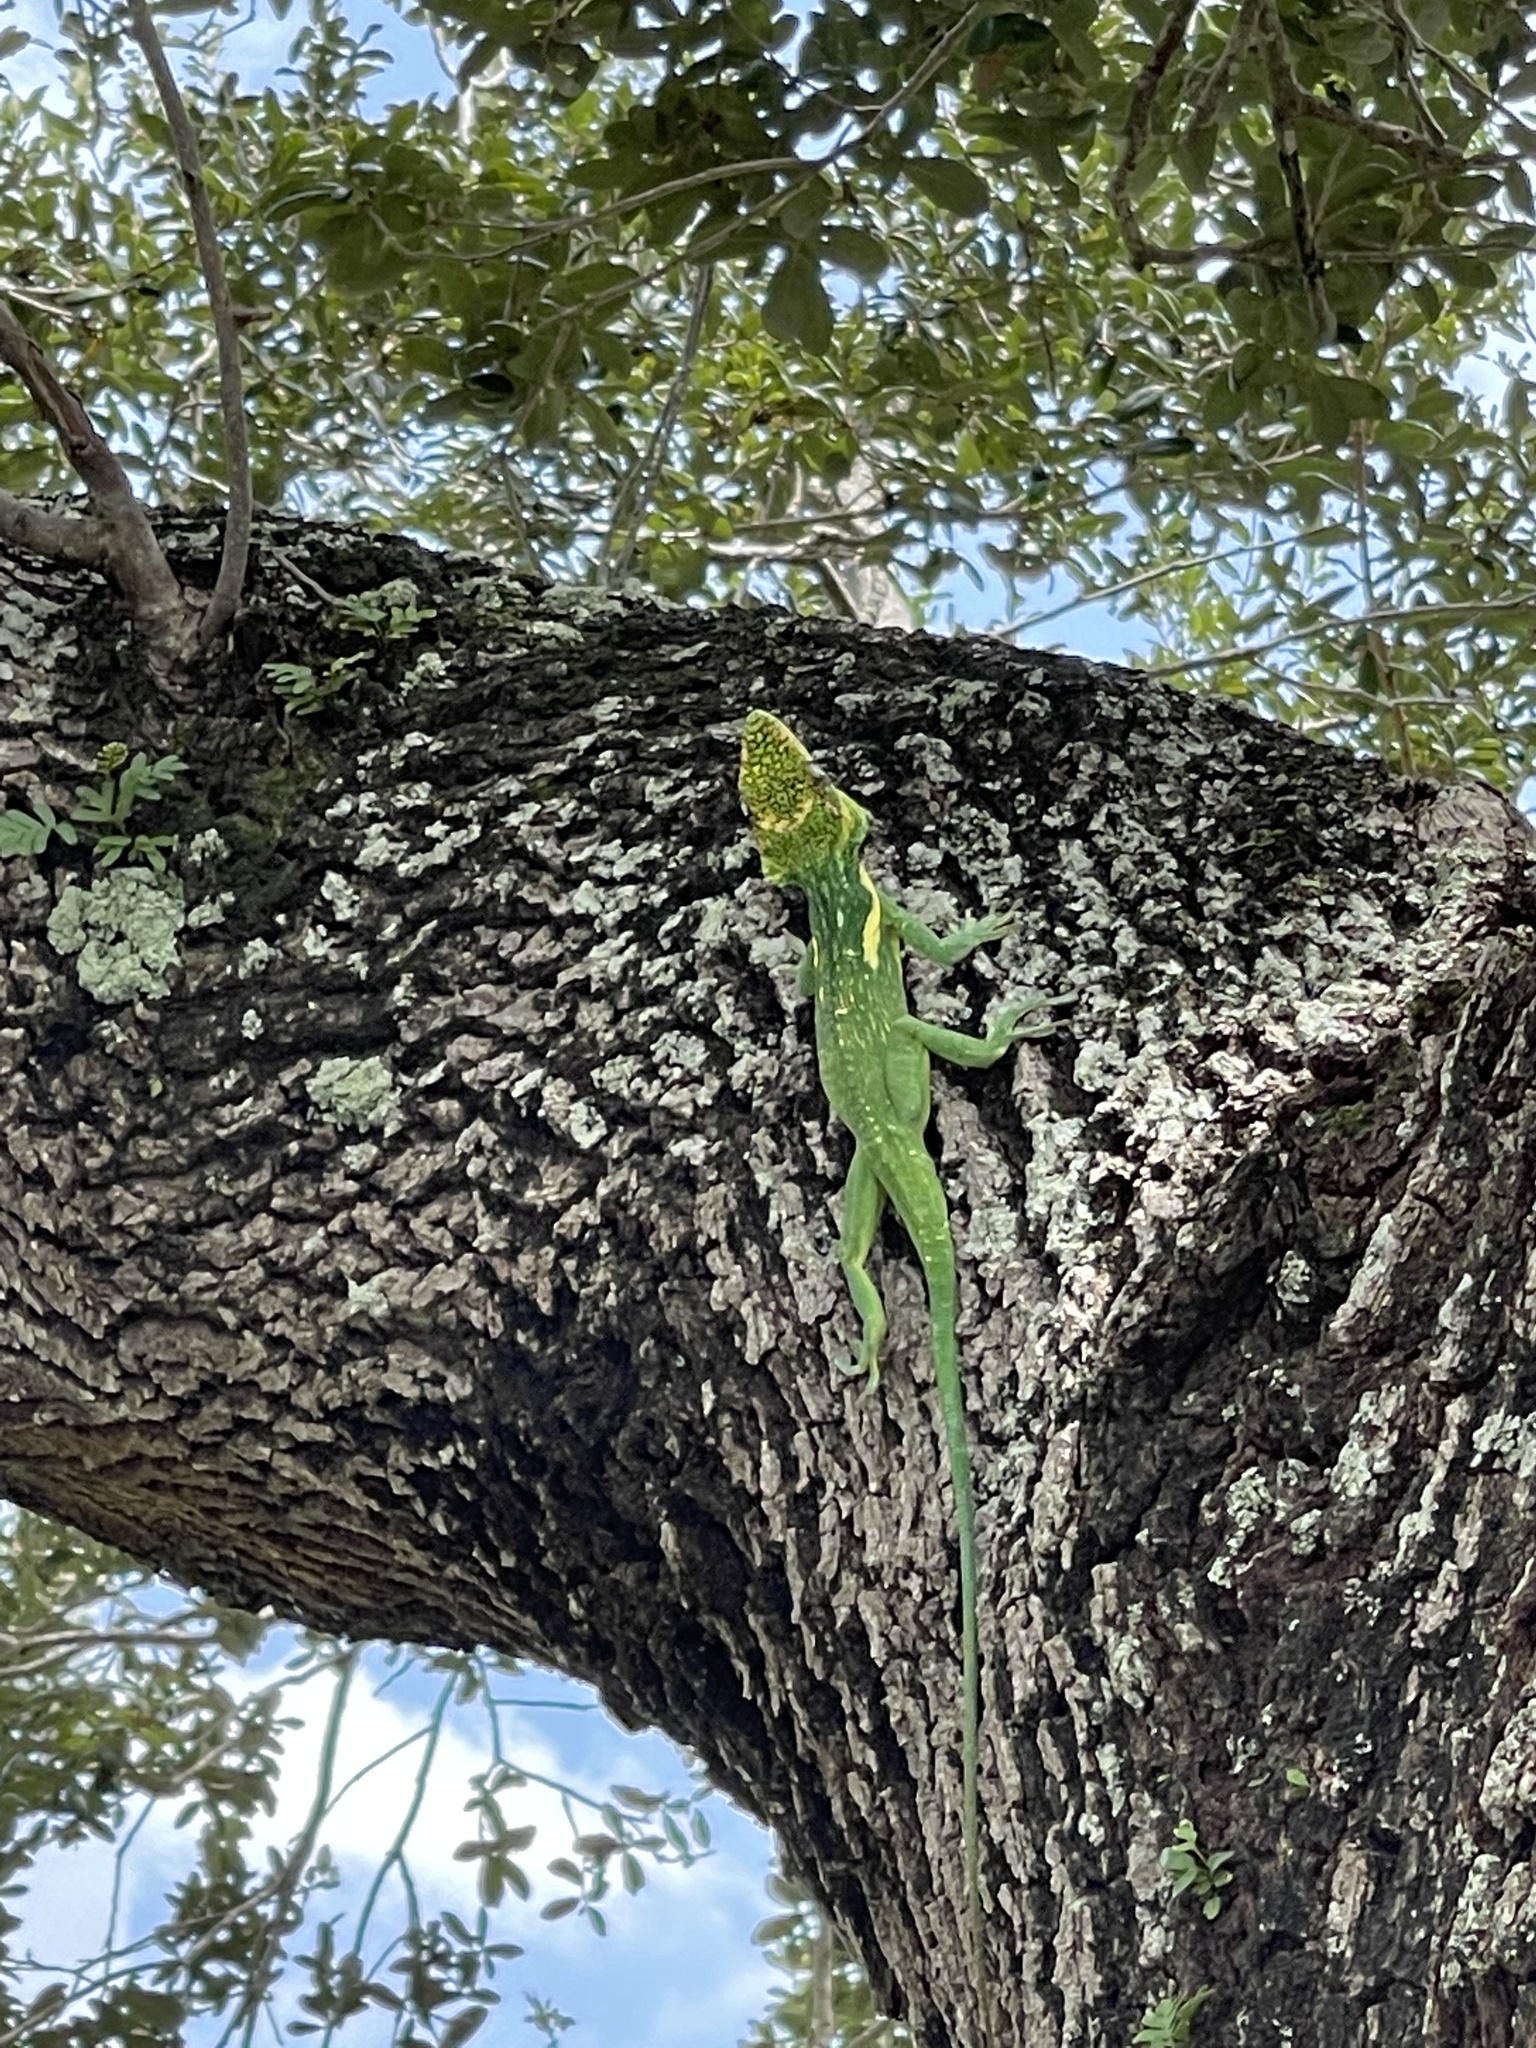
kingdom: Animalia
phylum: Chordata
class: Squamata
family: Dactyloidae
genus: Anolis
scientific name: Anolis equestris
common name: Knight anole
